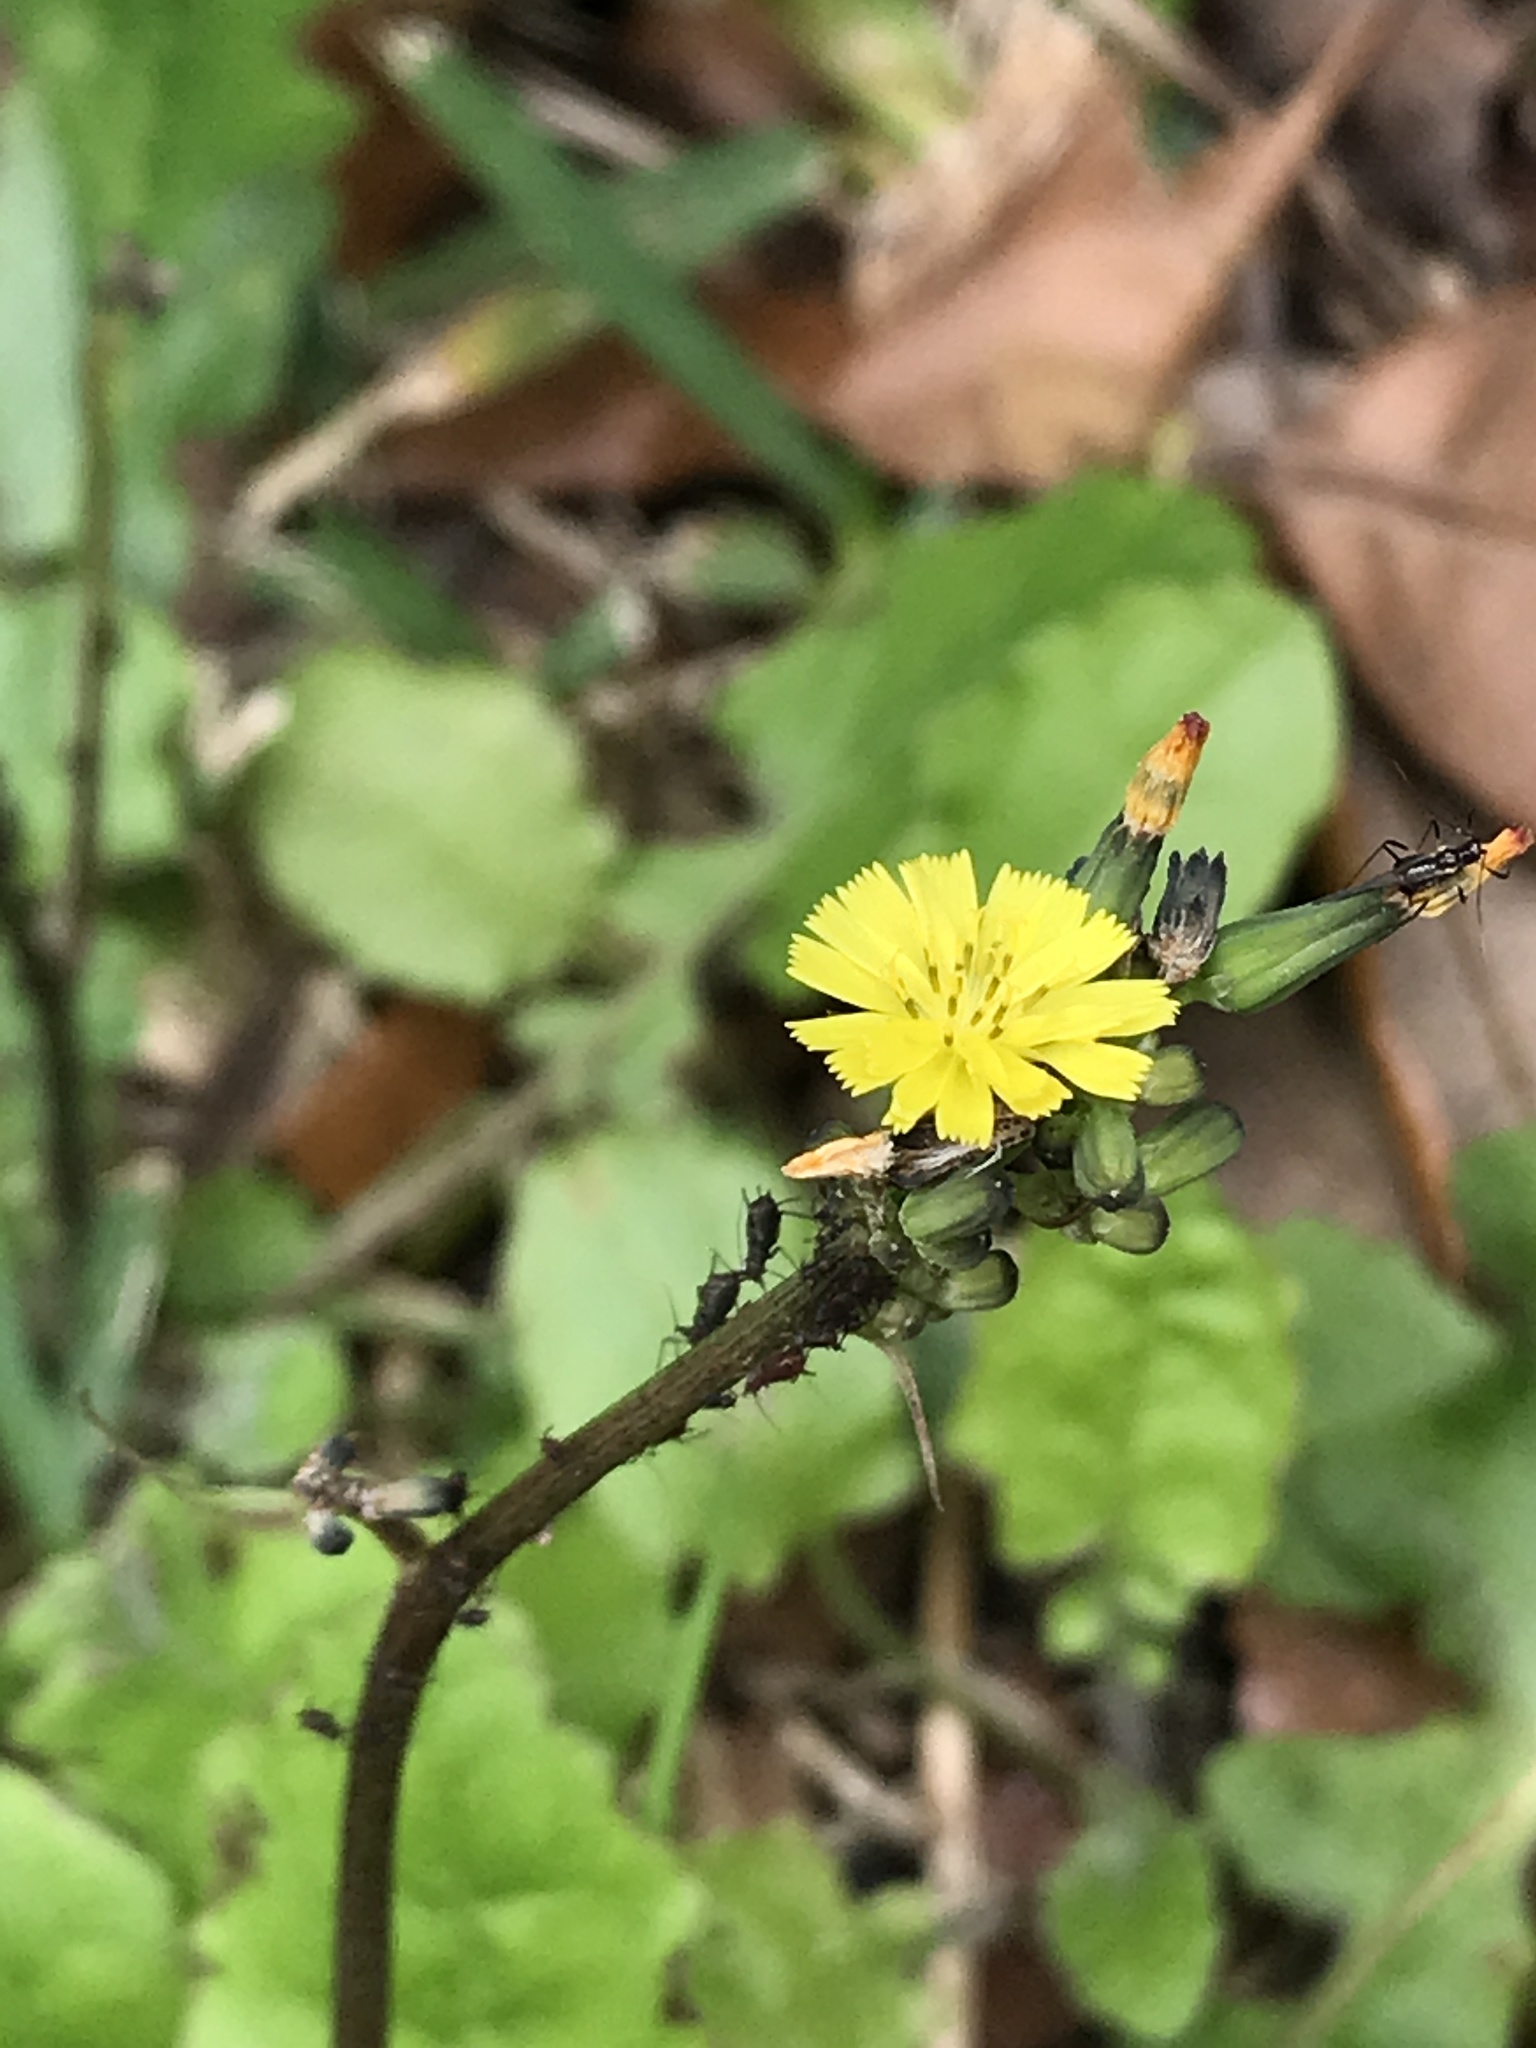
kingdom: Plantae
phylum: Tracheophyta
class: Magnoliopsida
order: Asterales
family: Asteraceae
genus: Youngia
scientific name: Youngia japonica
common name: Oriental false hawksbeard
